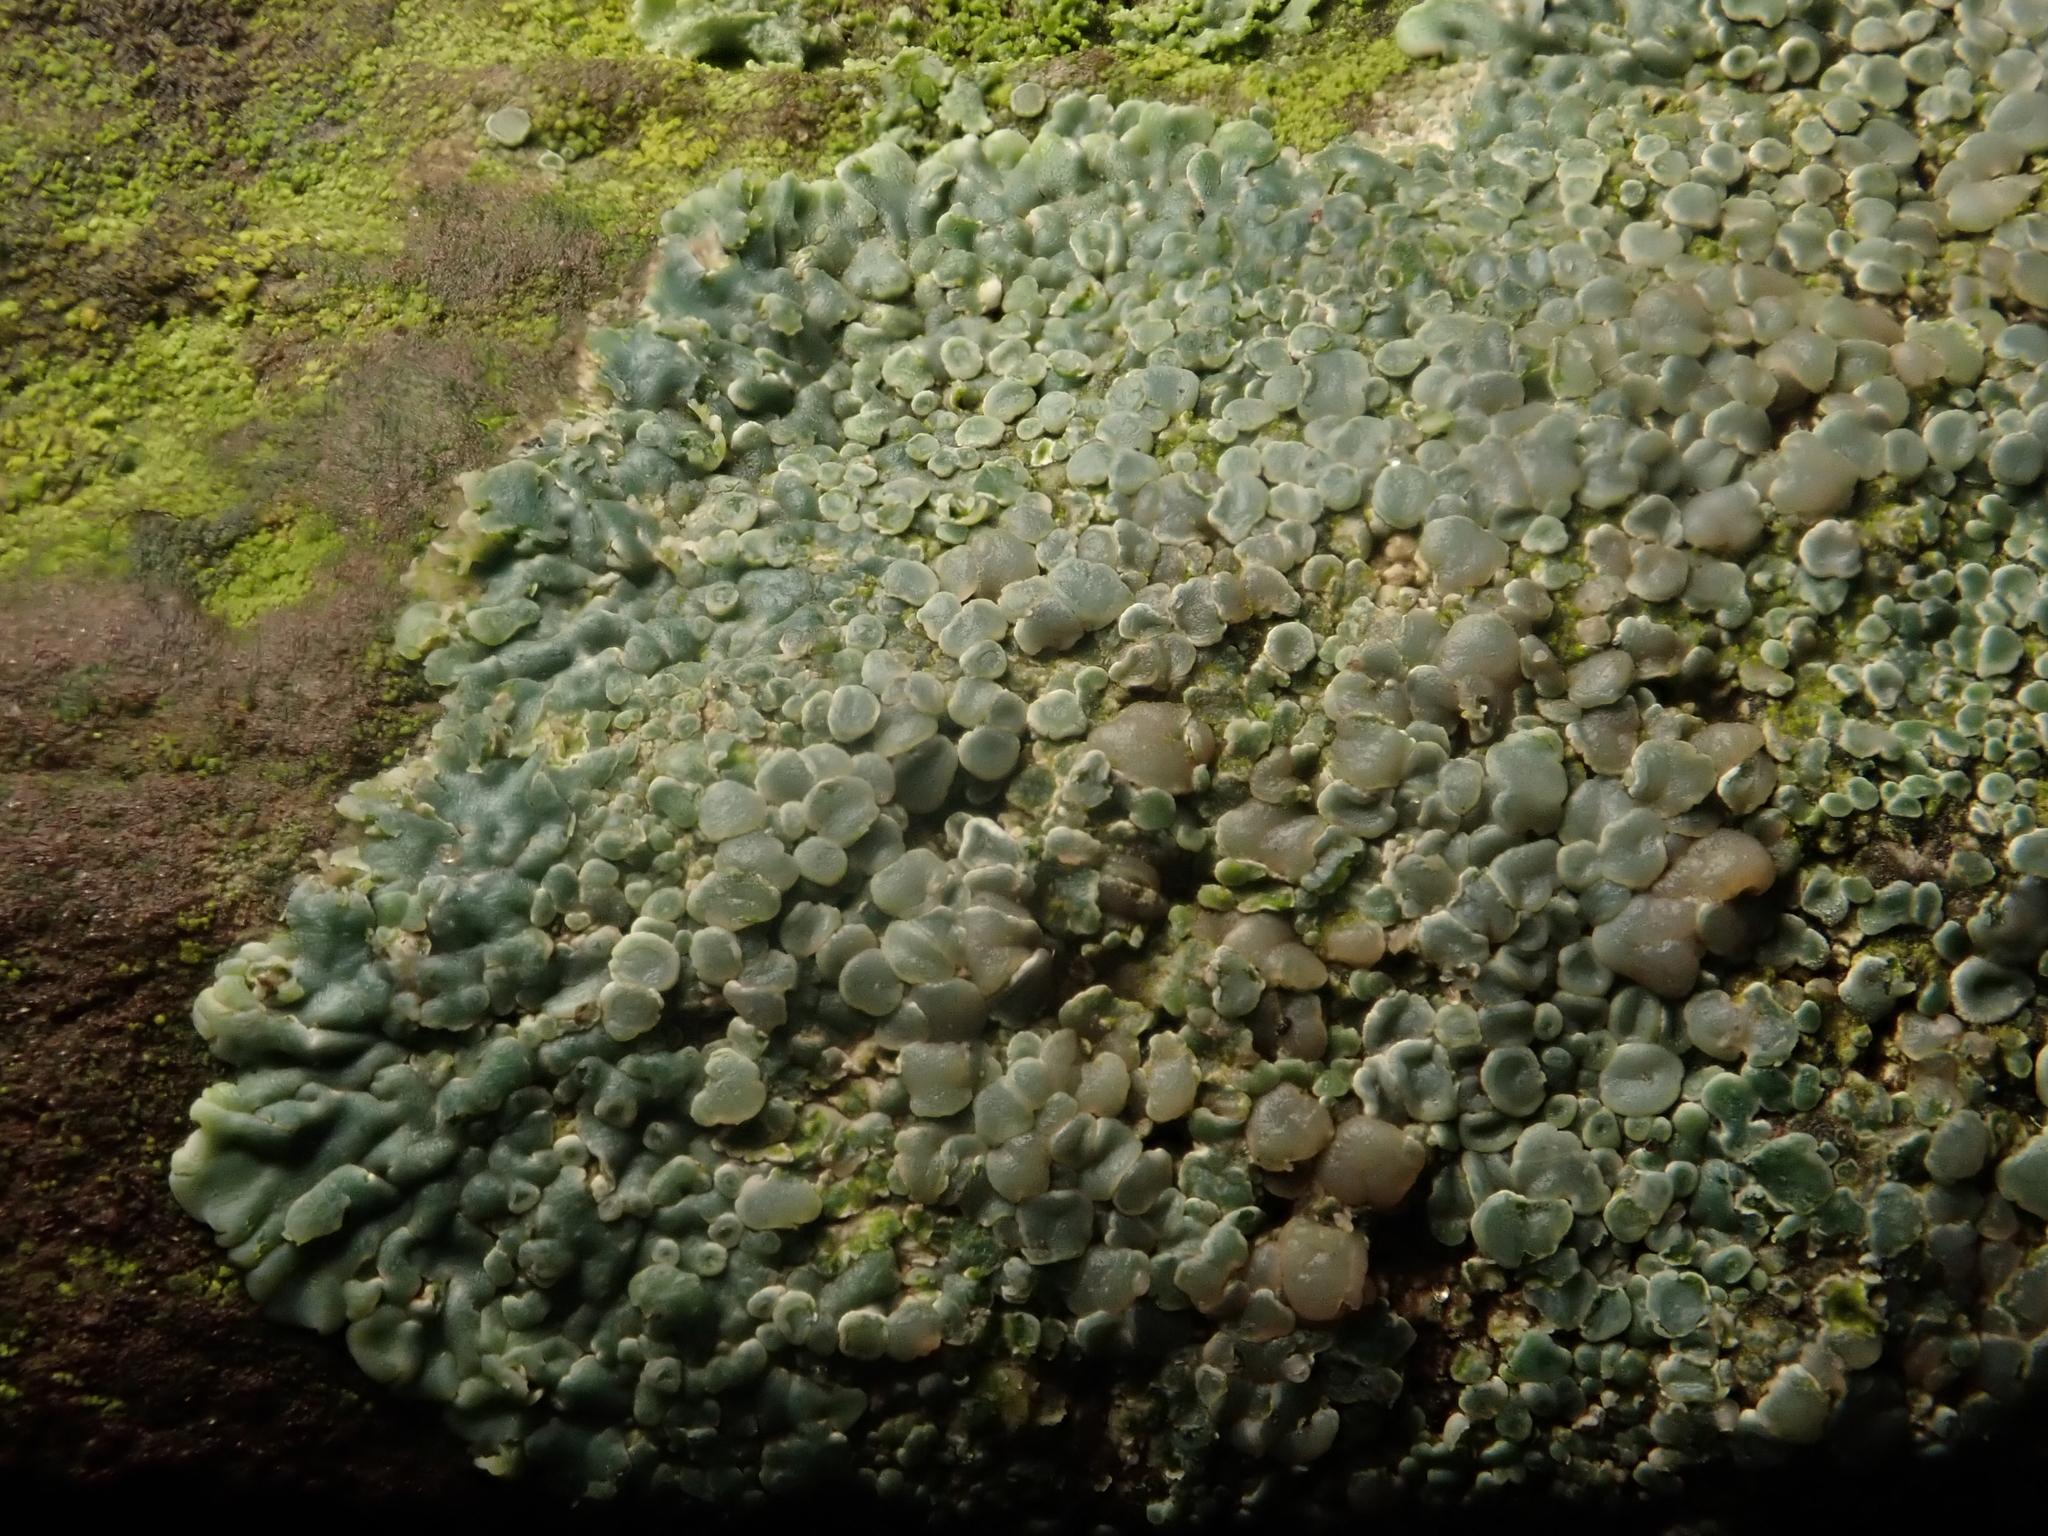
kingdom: Fungi
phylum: Ascomycota
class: Lecanoromycetes
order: Lecanorales
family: Lecanoraceae
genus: Protoparmeliopsis
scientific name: Protoparmeliopsis muralis
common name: Stonewall rim lichen
